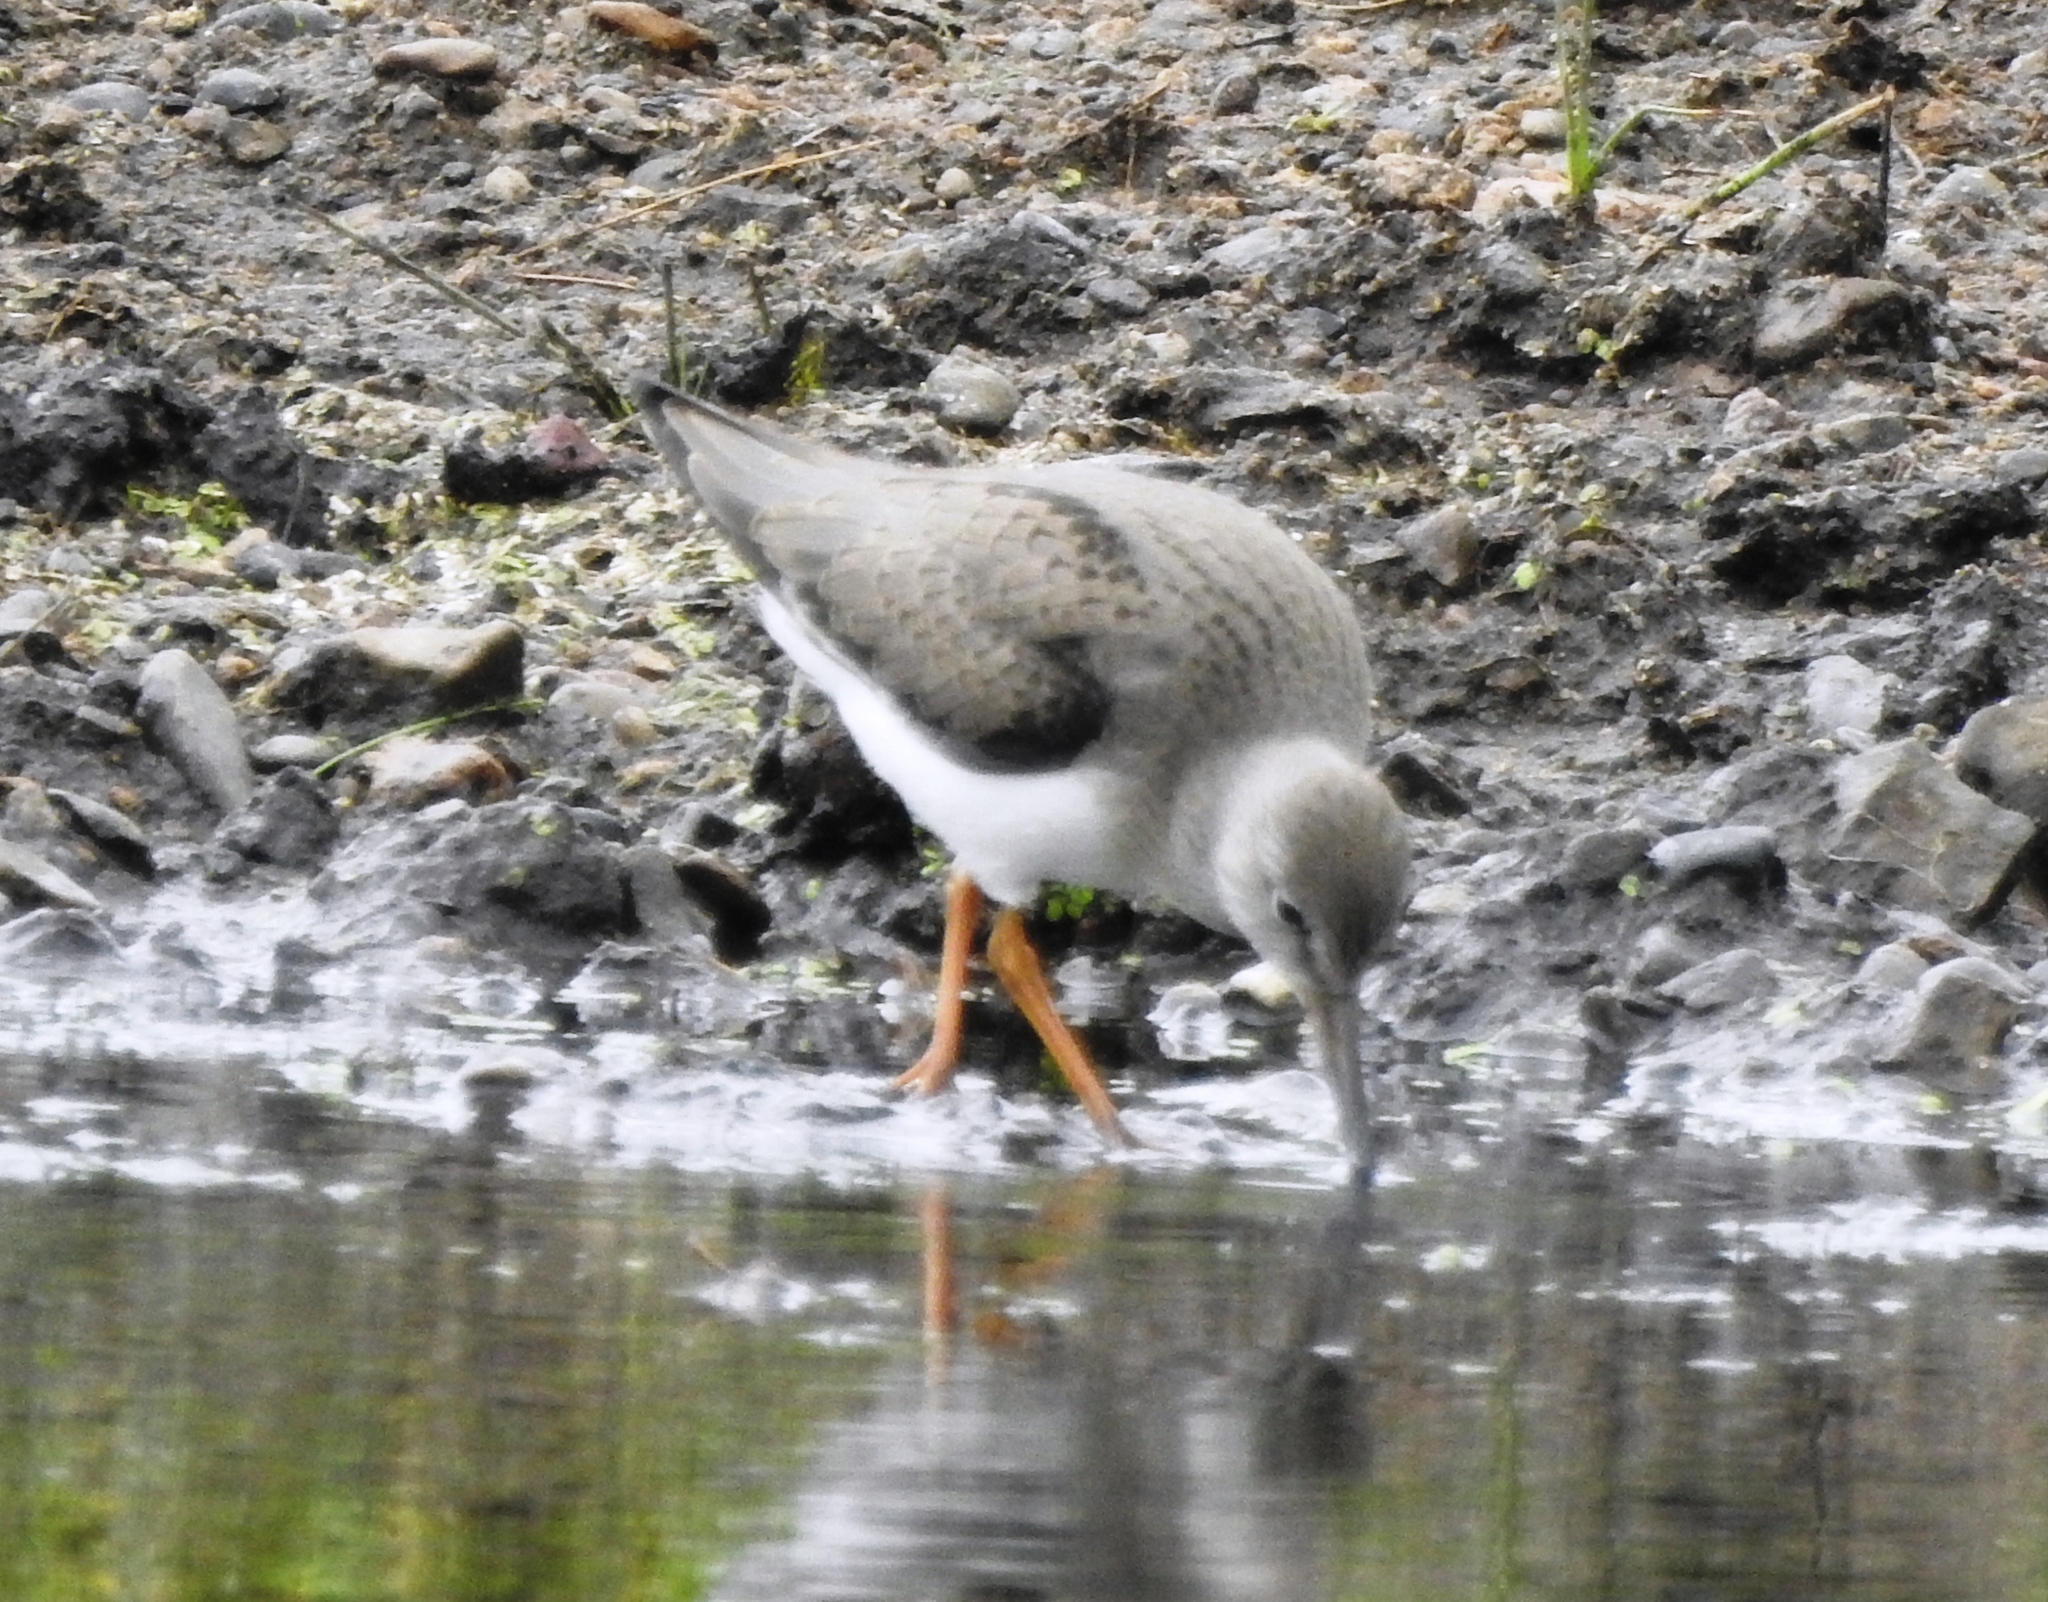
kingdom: Animalia
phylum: Chordata
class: Aves
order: Charadriiformes
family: Scolopacidae
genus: Xenus
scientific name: Xenus cinereus
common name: Terek sandpiper
